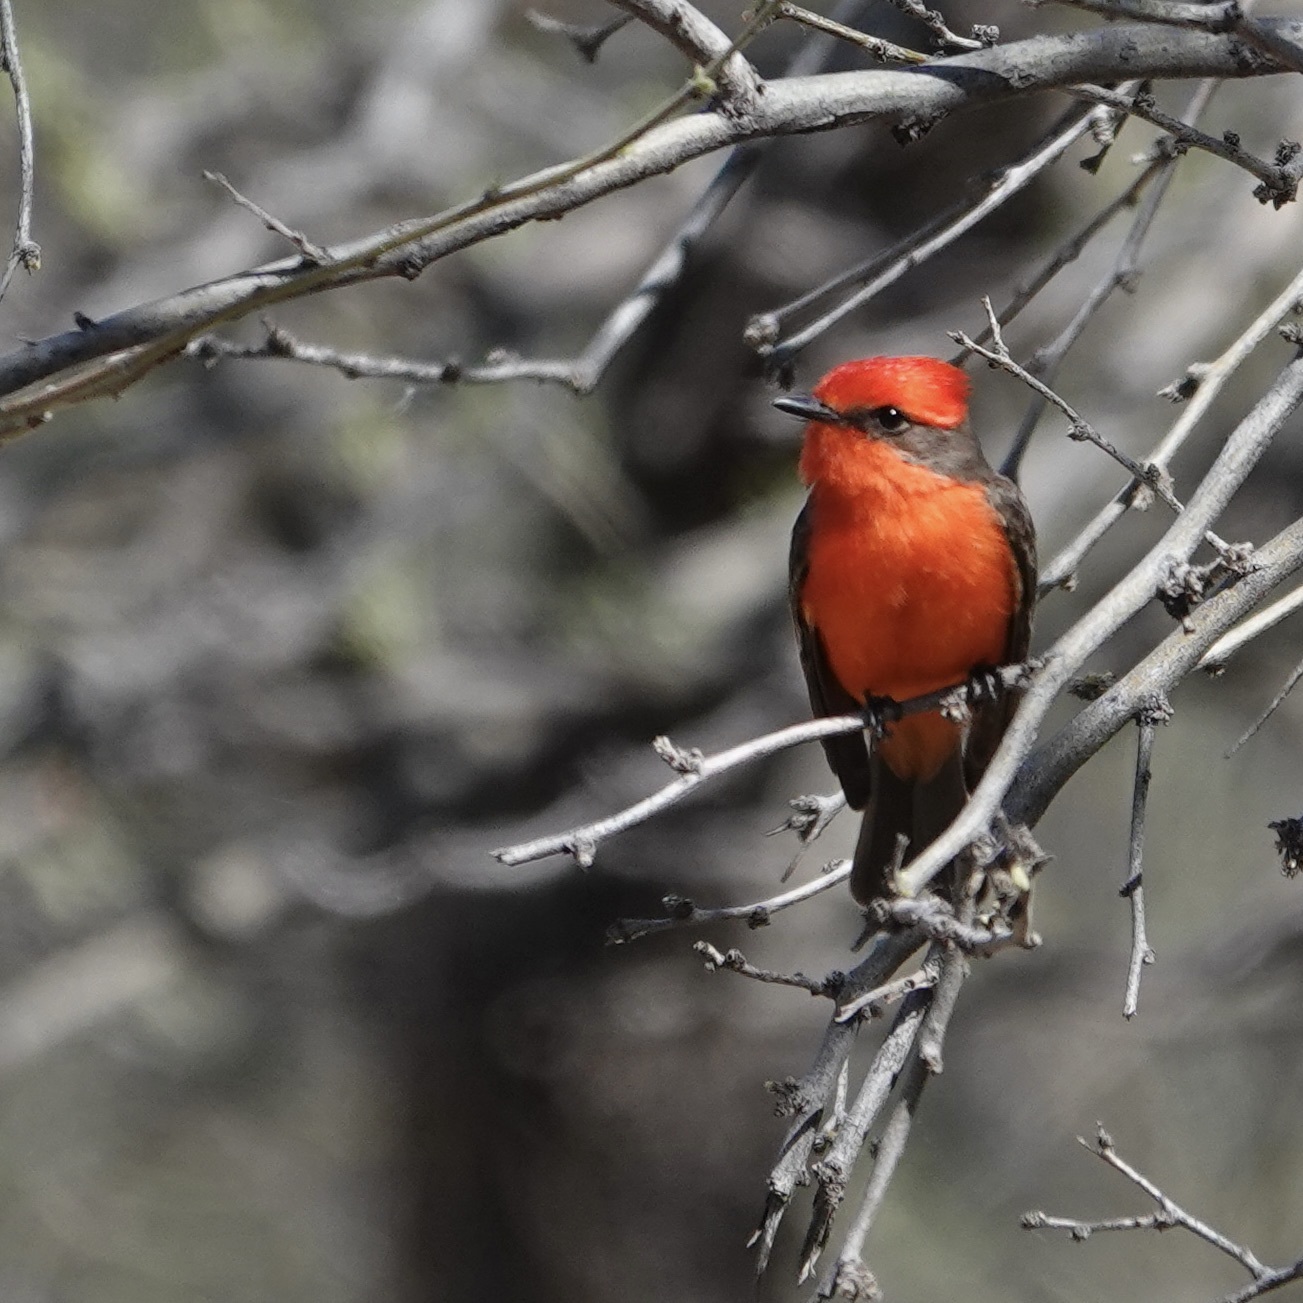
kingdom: Animalia
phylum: Chordata
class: Aves
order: Passeriformes
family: Tyrannidae
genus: Pyrocephalus
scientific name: Pyrocephalus rubinus
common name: Vermilion flycatcher
